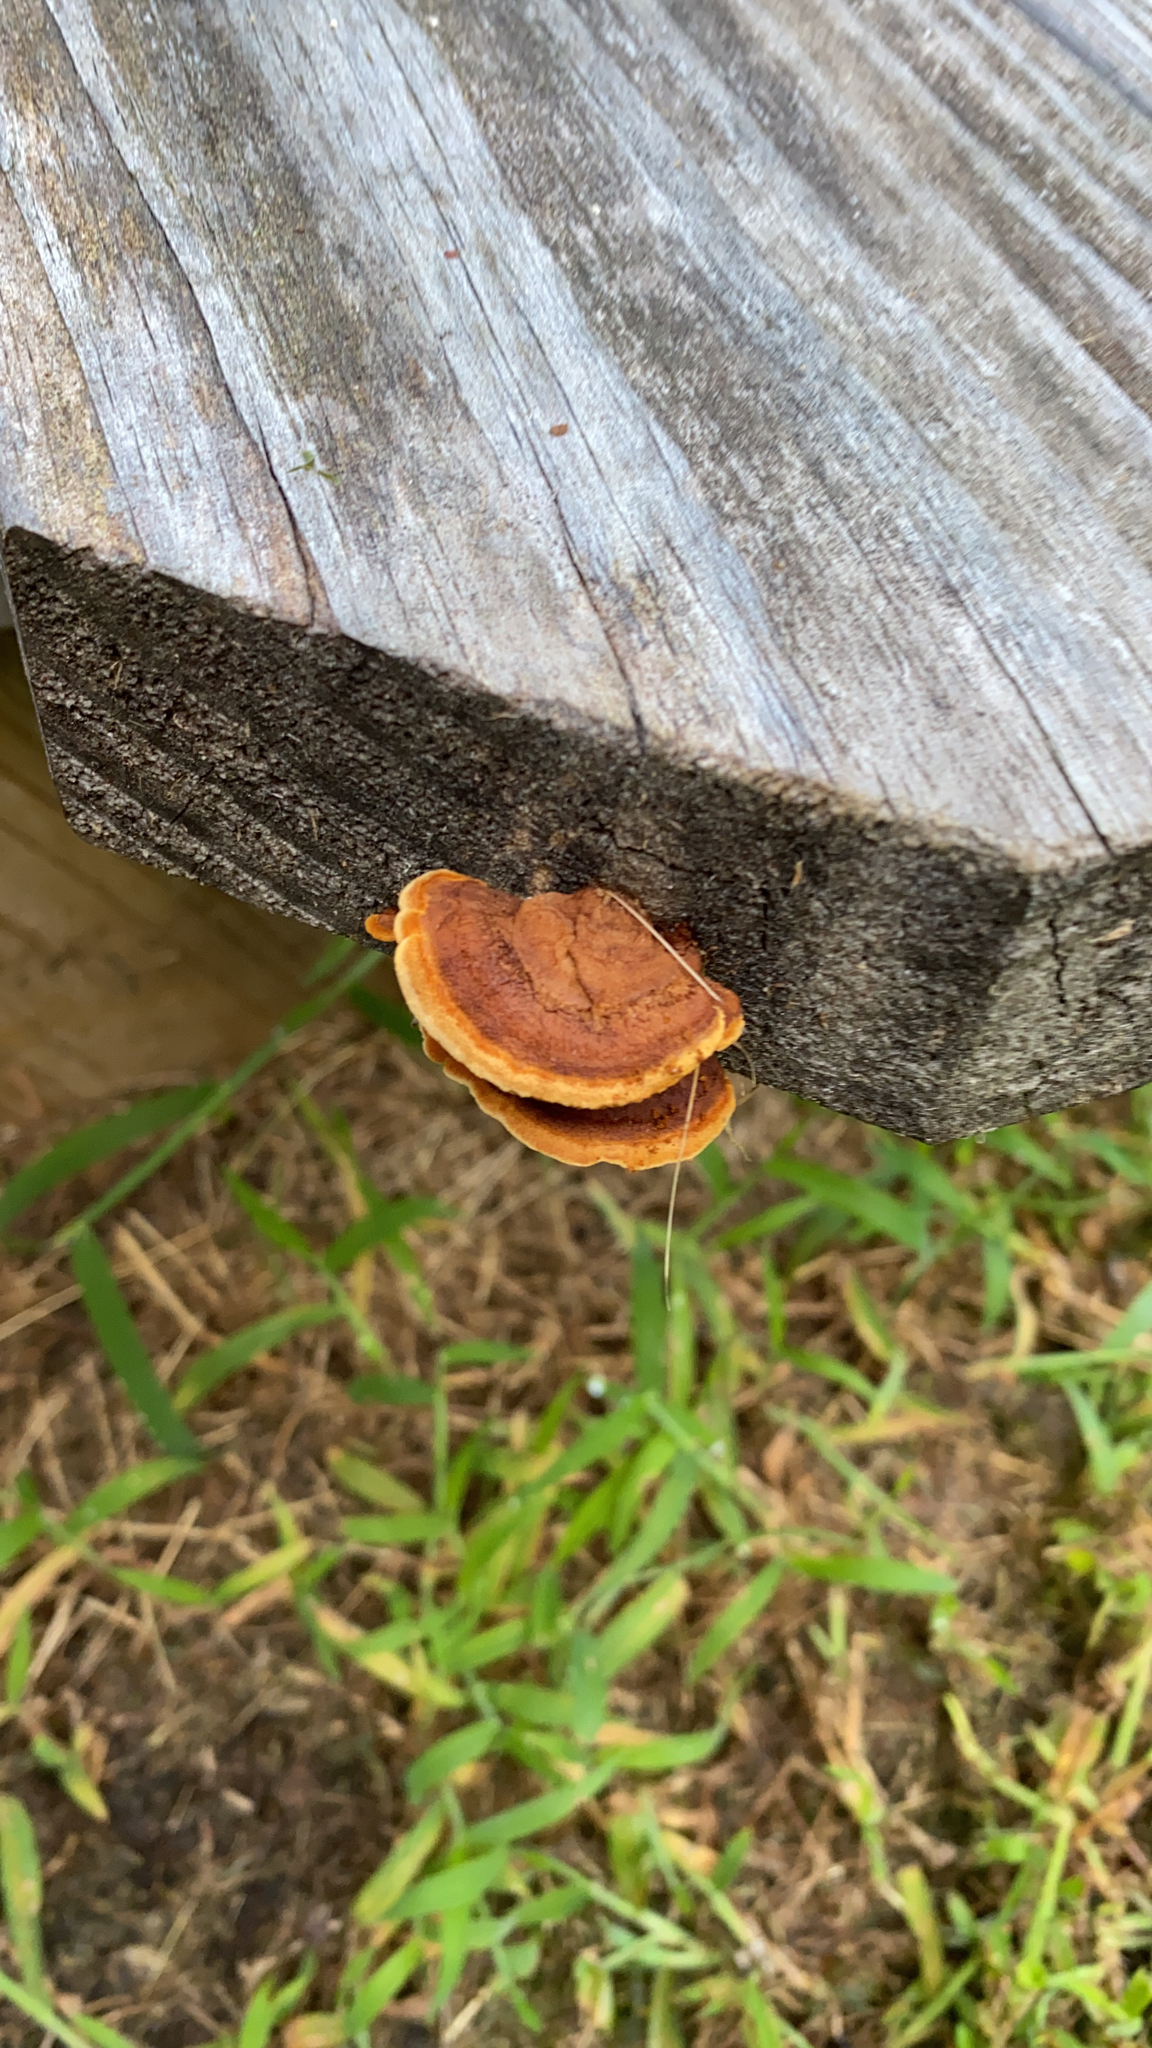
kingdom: Fungi
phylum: Basidiomycota
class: Agaricomycetes
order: Gloeophyllales
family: Gloeophyllaceae
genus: Gloeophyllum
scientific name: Gloeophyllum sepiarium
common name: Conifer mazegill
